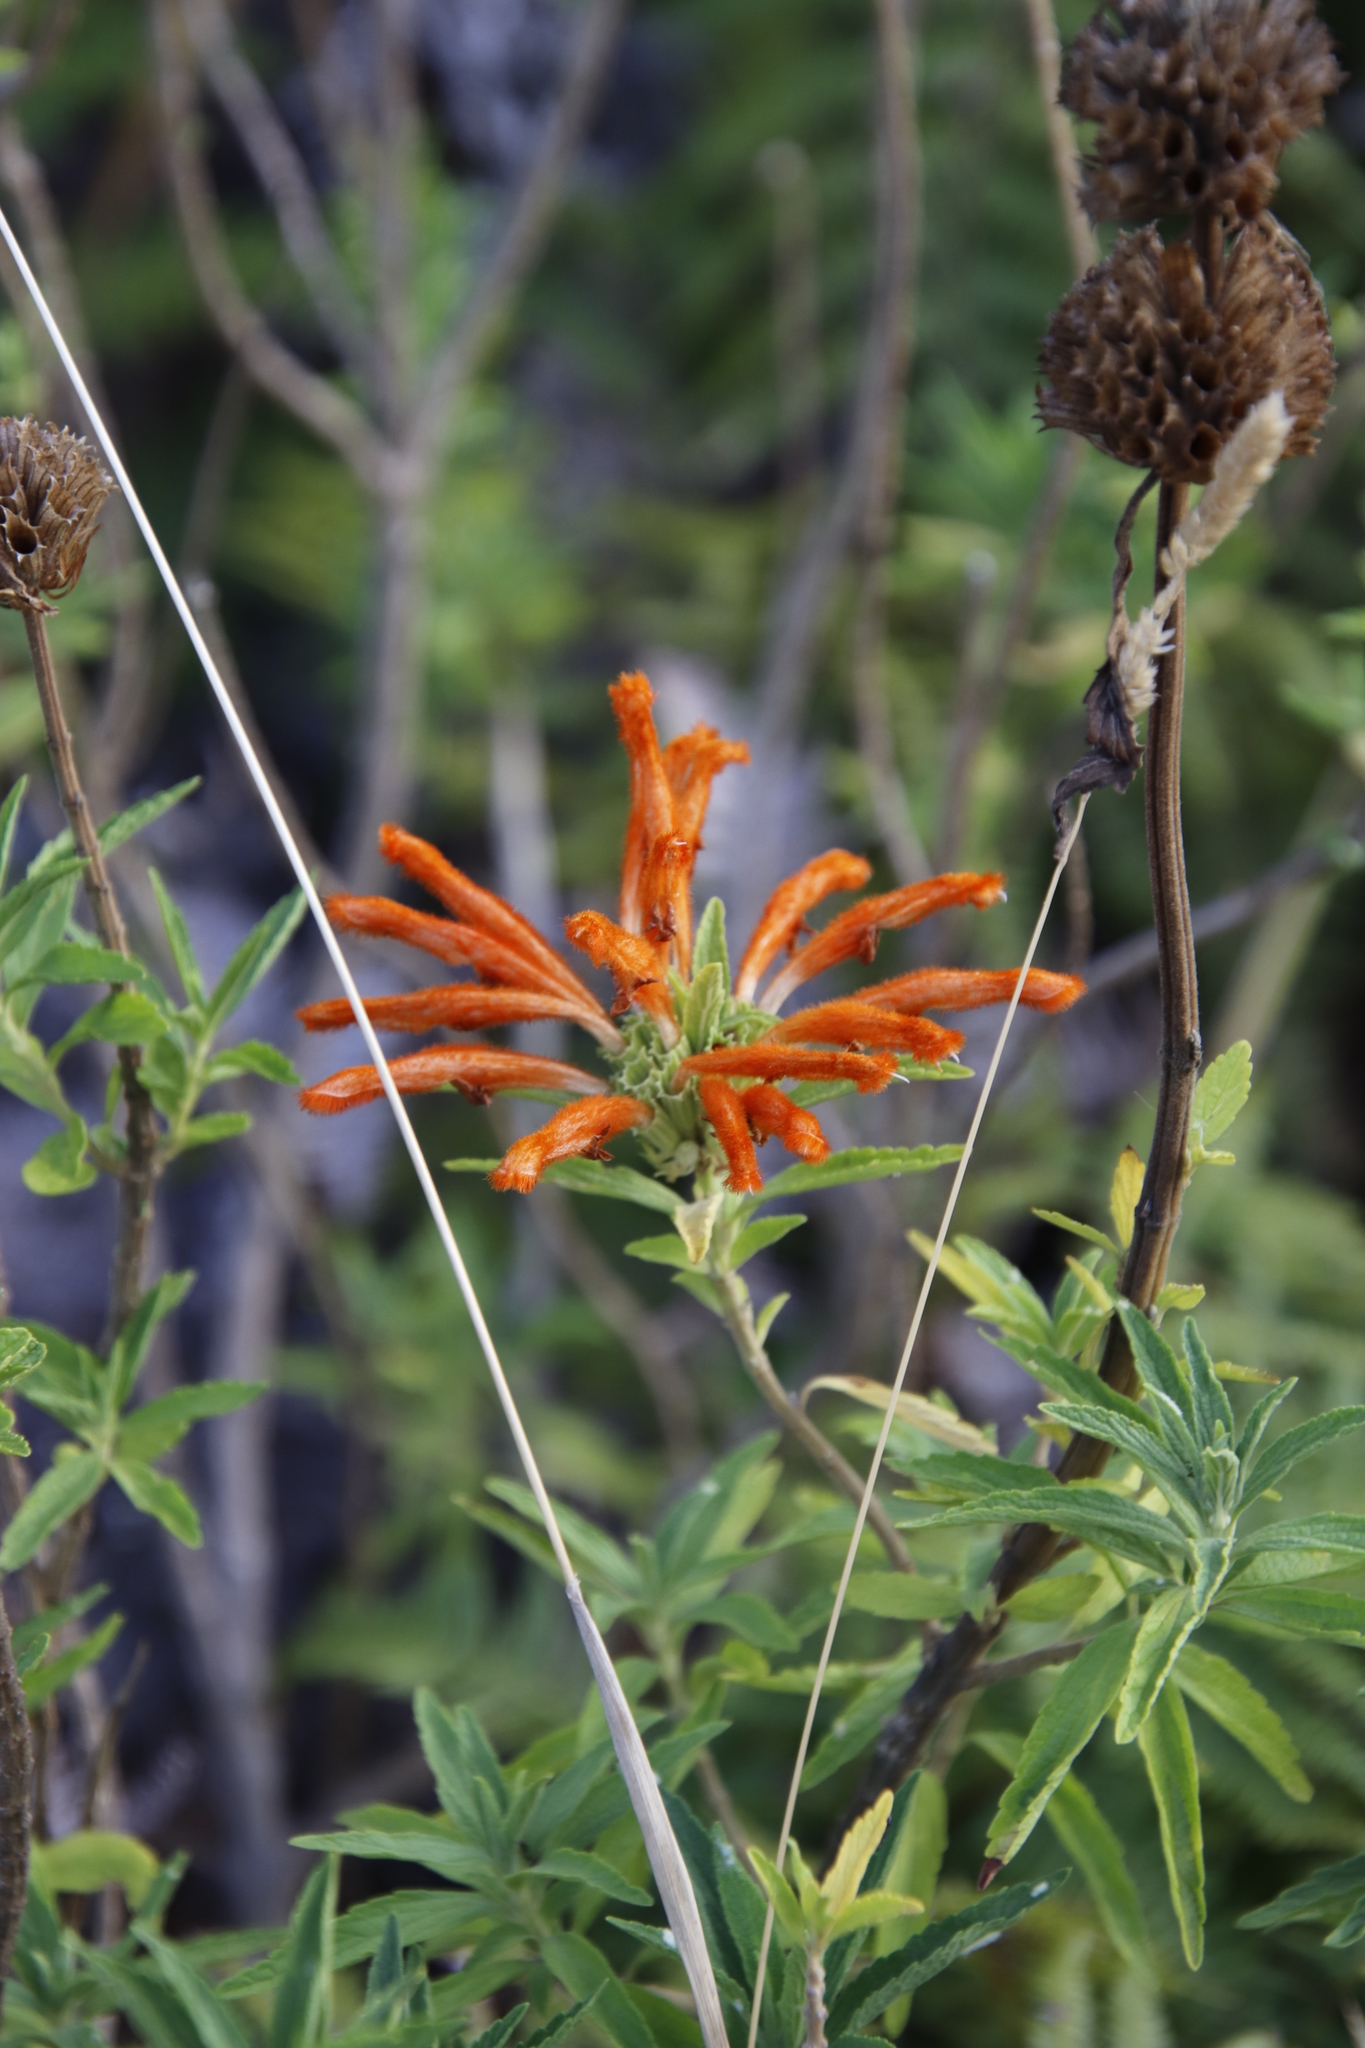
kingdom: Plantae
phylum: Tracheophyta
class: Magnoliopsida
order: Lamiales
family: Lamiaceae
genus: Leonotis
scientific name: Leonotis leonurus
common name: Lion's ear
